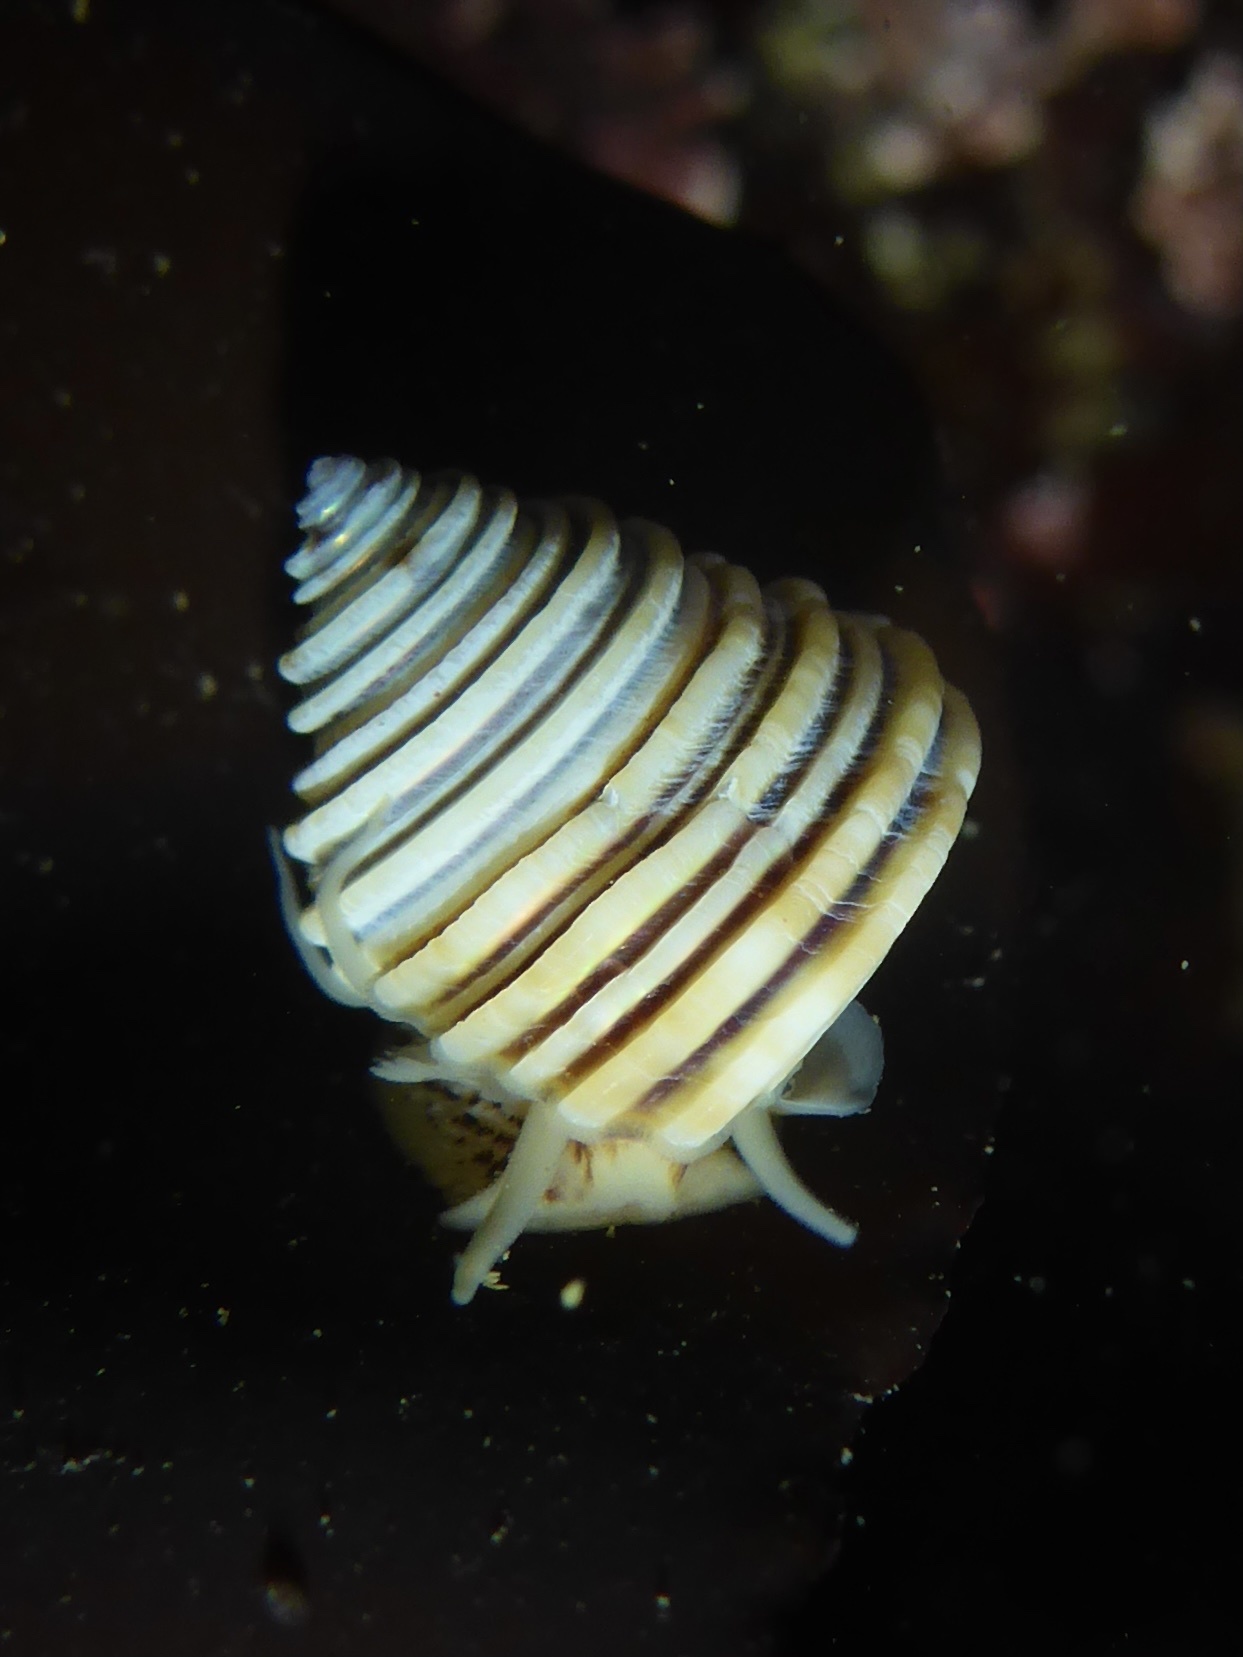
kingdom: Animalia
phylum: Mollusca
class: Gastropoda
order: Trochida
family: Calliostomatidae
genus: Calliostoma
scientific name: Calliostoma canaliculatum
